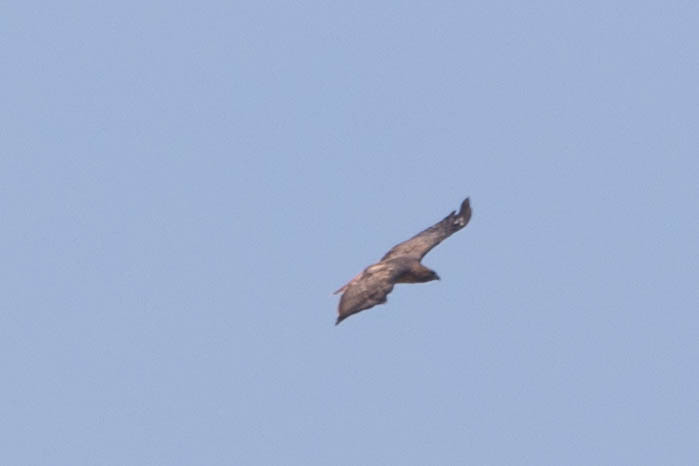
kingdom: Animalia
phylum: Chordata
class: Aves
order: Accipitriformes
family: Accipitridae
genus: Buteo
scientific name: Buteo jamaicensis
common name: Red-tailed hawk
